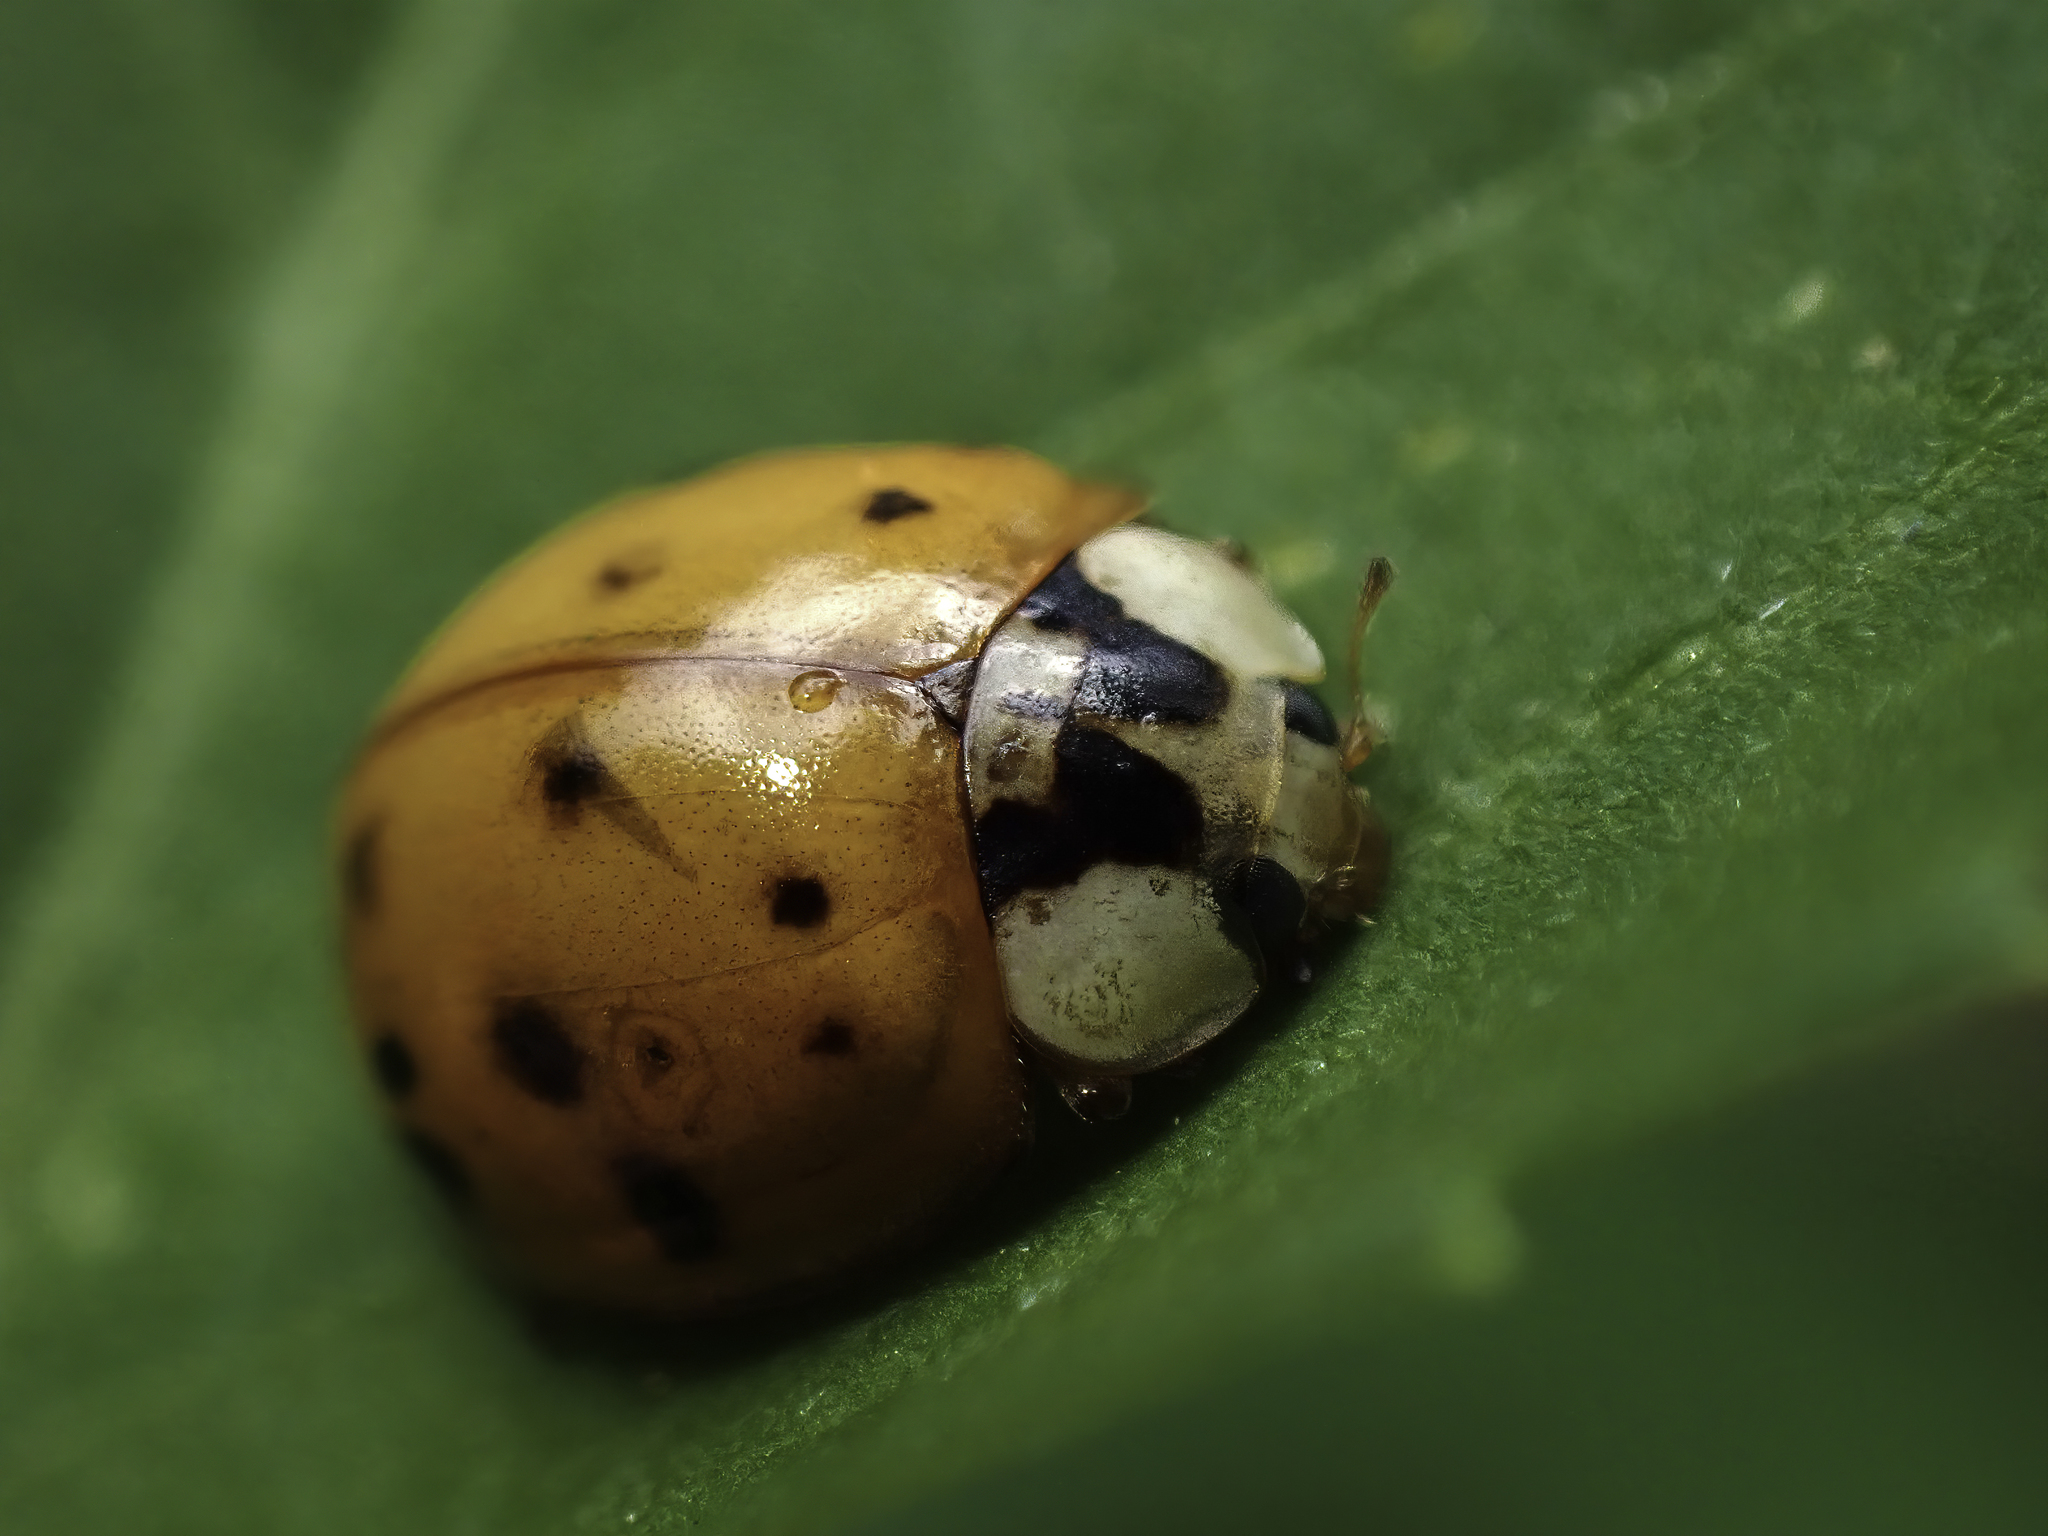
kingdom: Animalia
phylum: Arthropoda
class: Insecta
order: Coleoptera
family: Coccinellidae
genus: Harmonia
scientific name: Harmonia axyridis
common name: Harlequin ladybird
